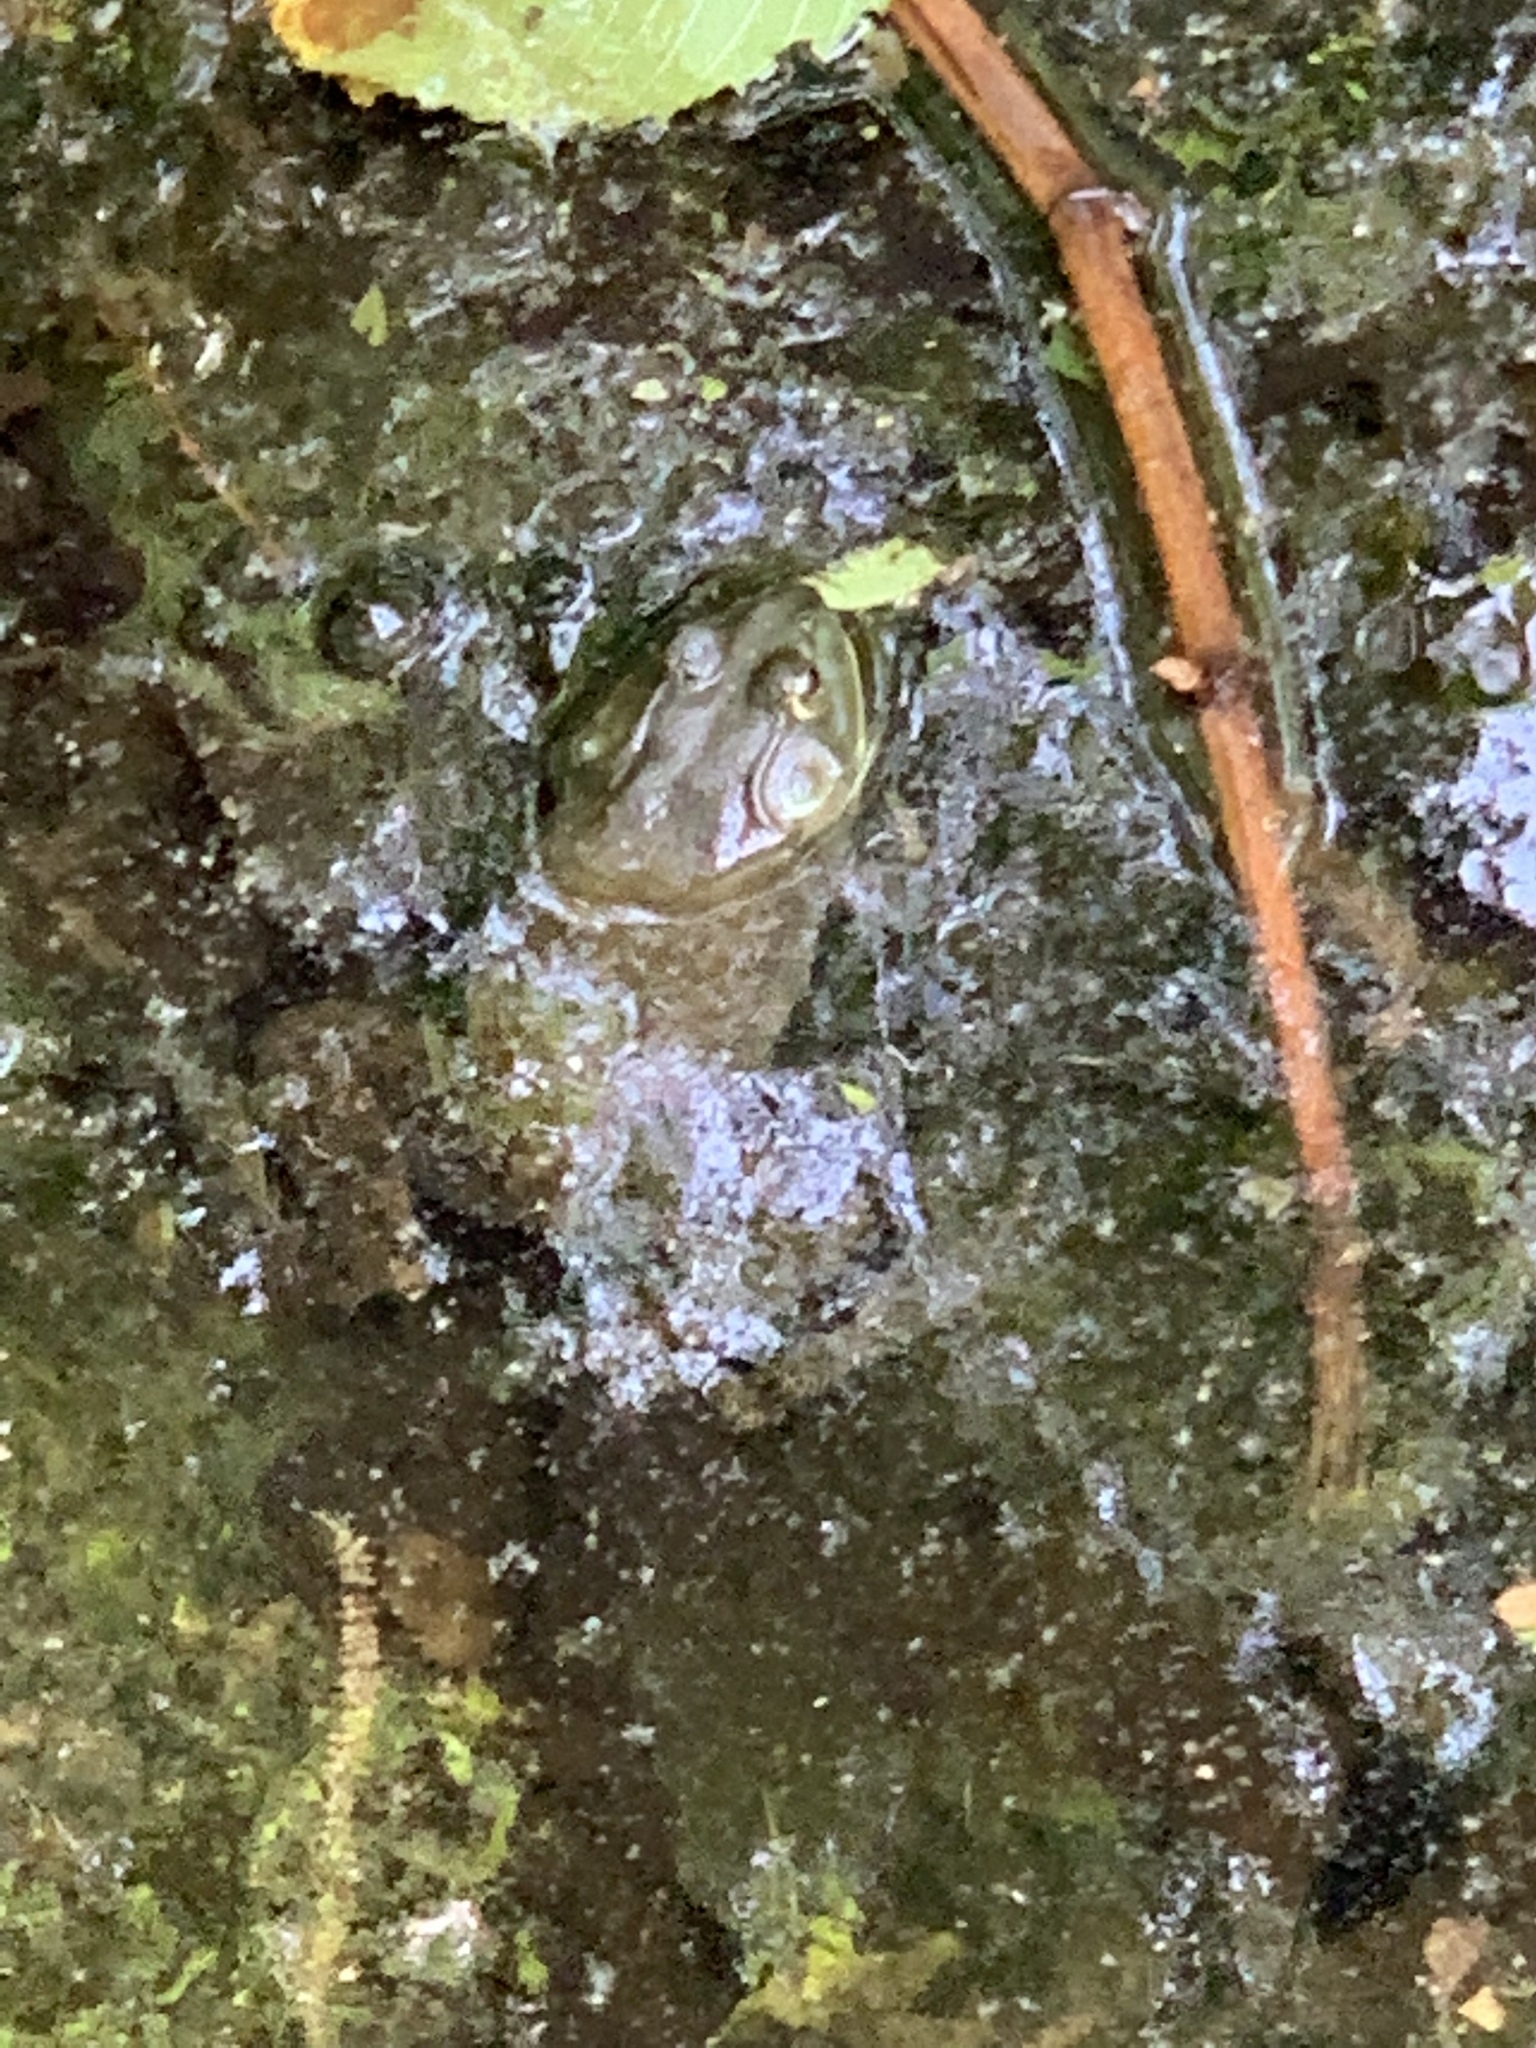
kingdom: Animalia
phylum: Chordata
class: Amphibia
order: Anura
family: Ranidae
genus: Lithobates
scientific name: Lithobates catesbeianus
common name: American bullfrog
